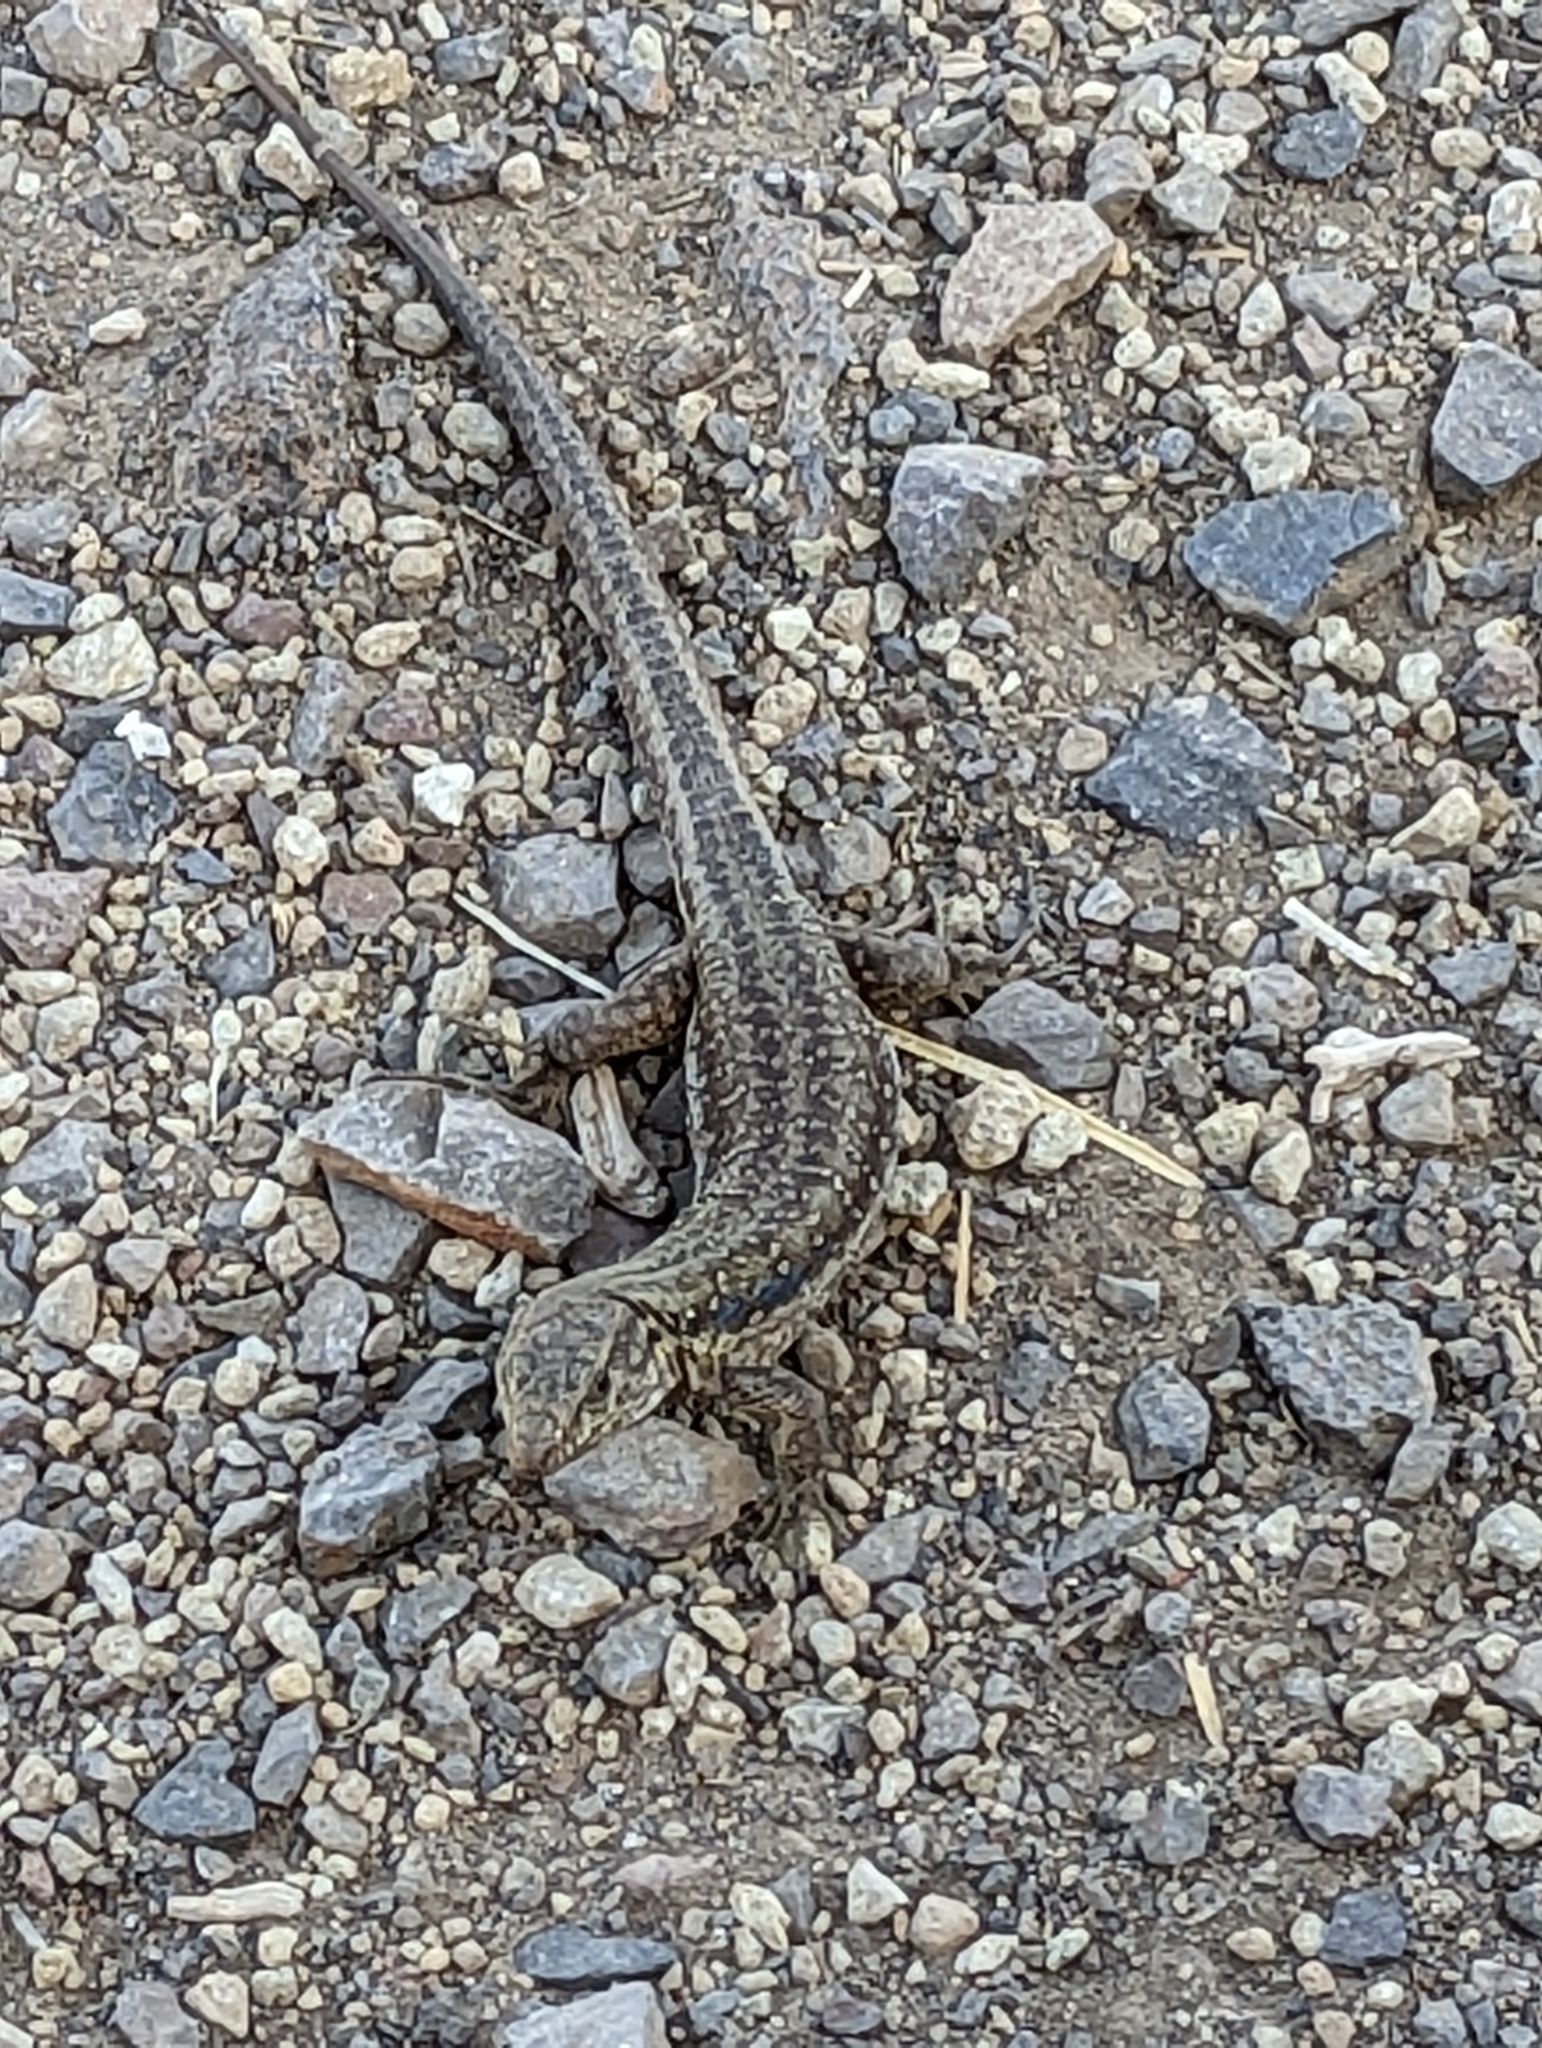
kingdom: Animalia
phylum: Chordata
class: Squamata
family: Lacertidae
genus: Gallotia
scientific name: Gallotia galloti
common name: Gallot's lizard
